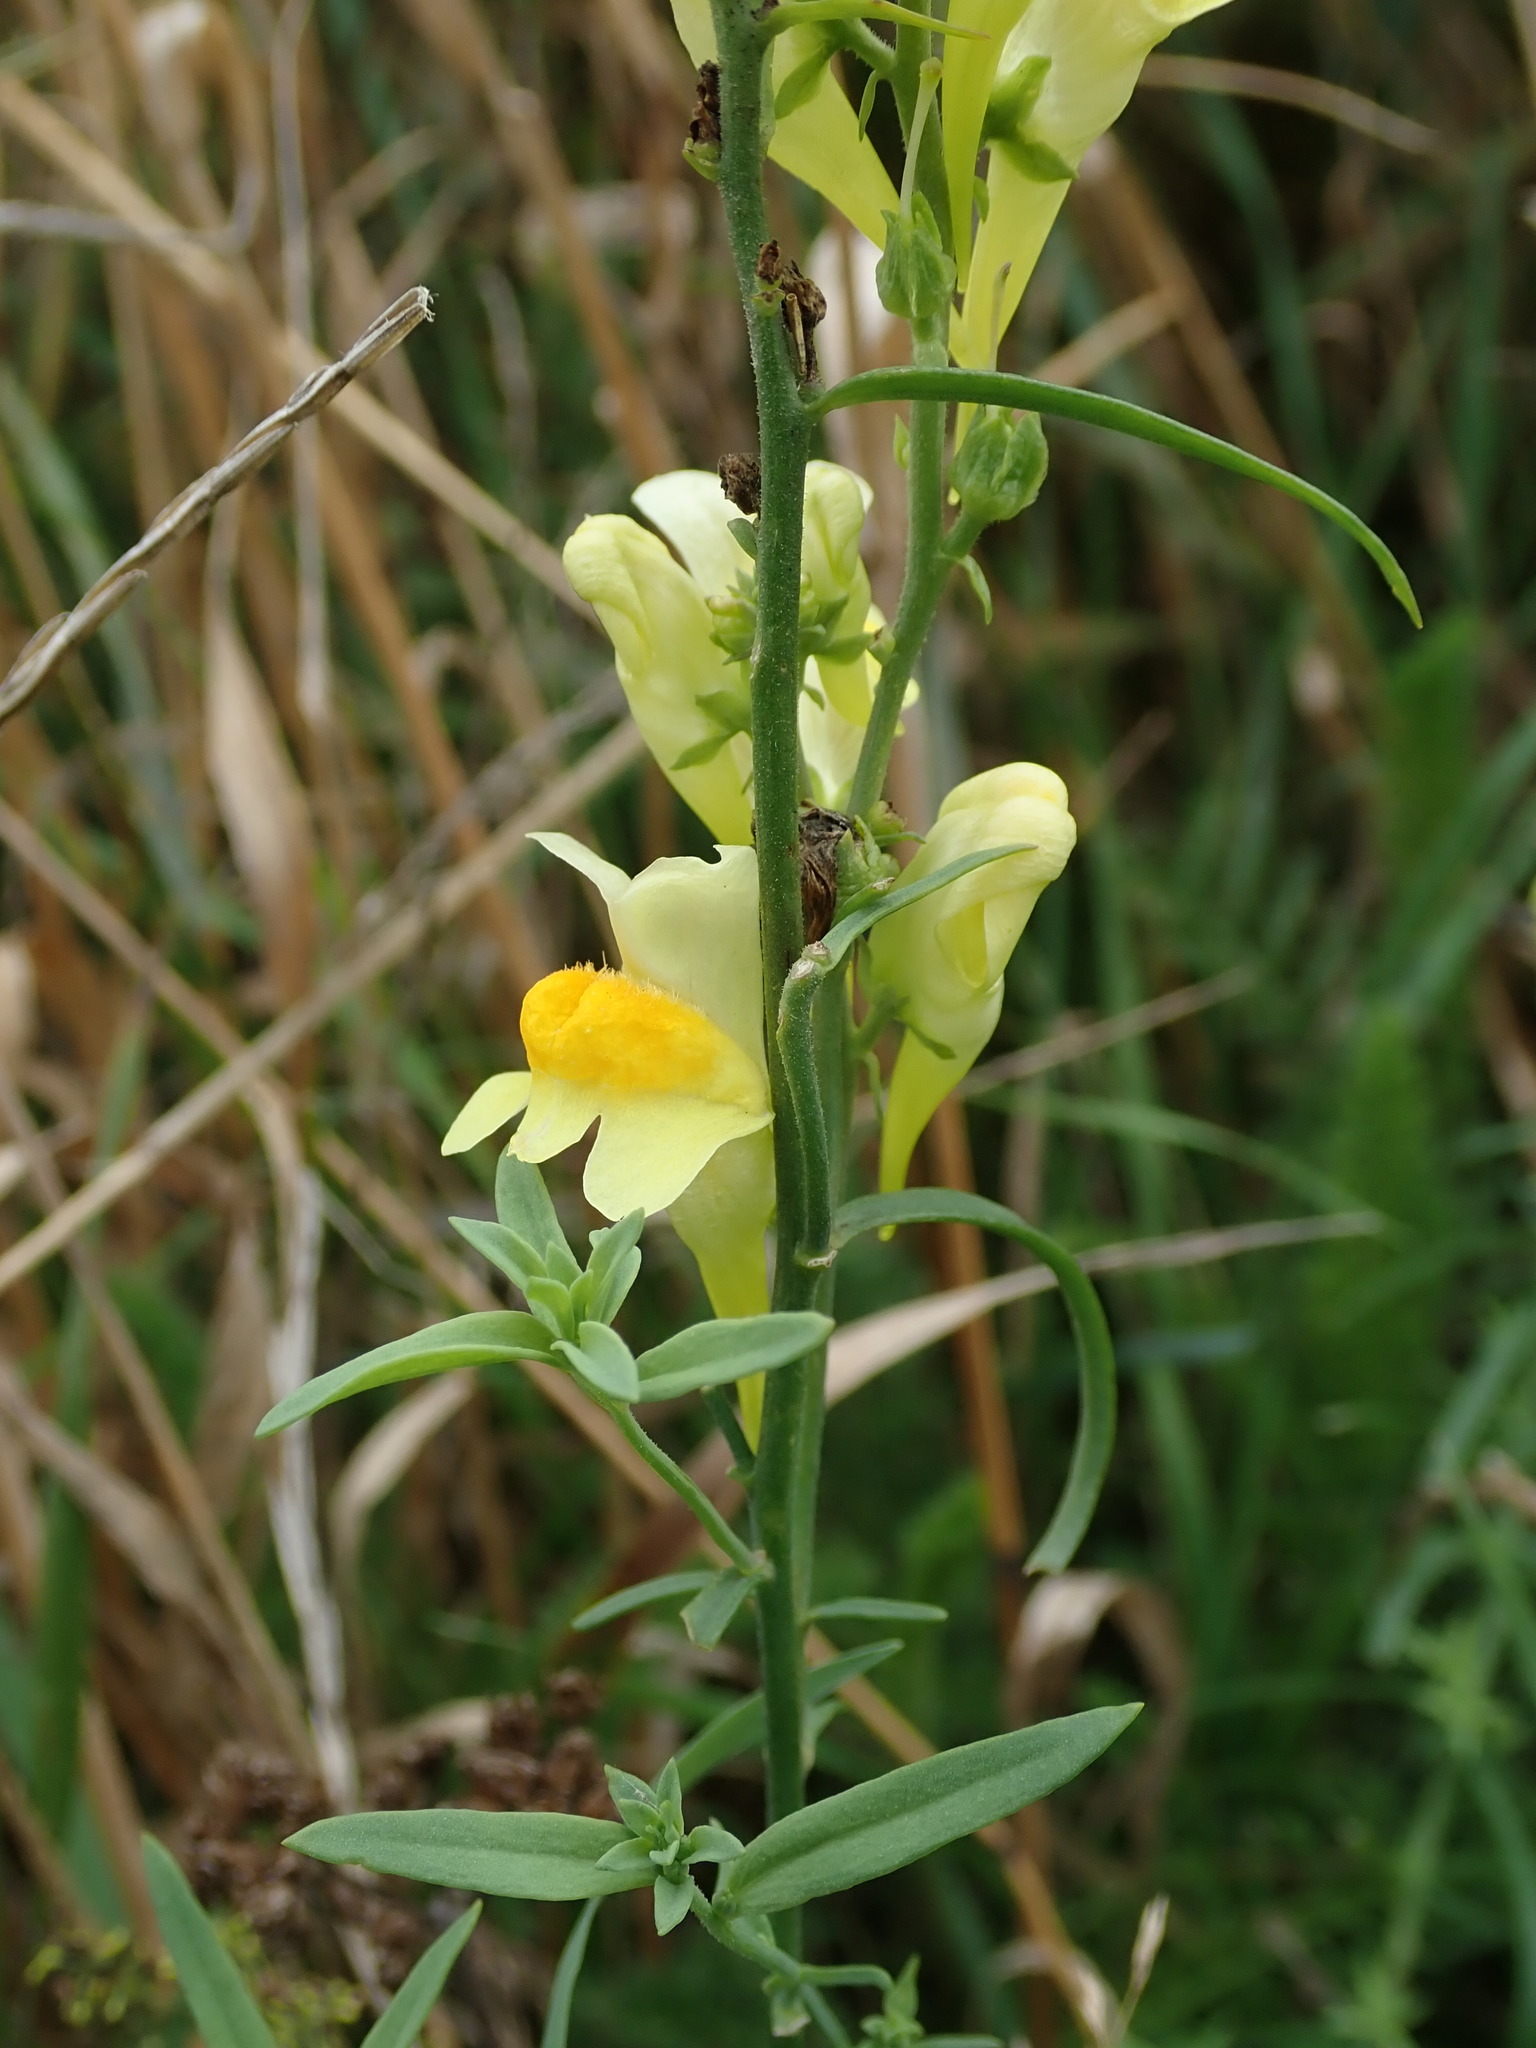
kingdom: Plantae
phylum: Tracheophyta
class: Magnoliopsida
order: Lamiales
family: Plantaginaceae
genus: Linaria
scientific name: Linaria vulgaris
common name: Butter and eggs
